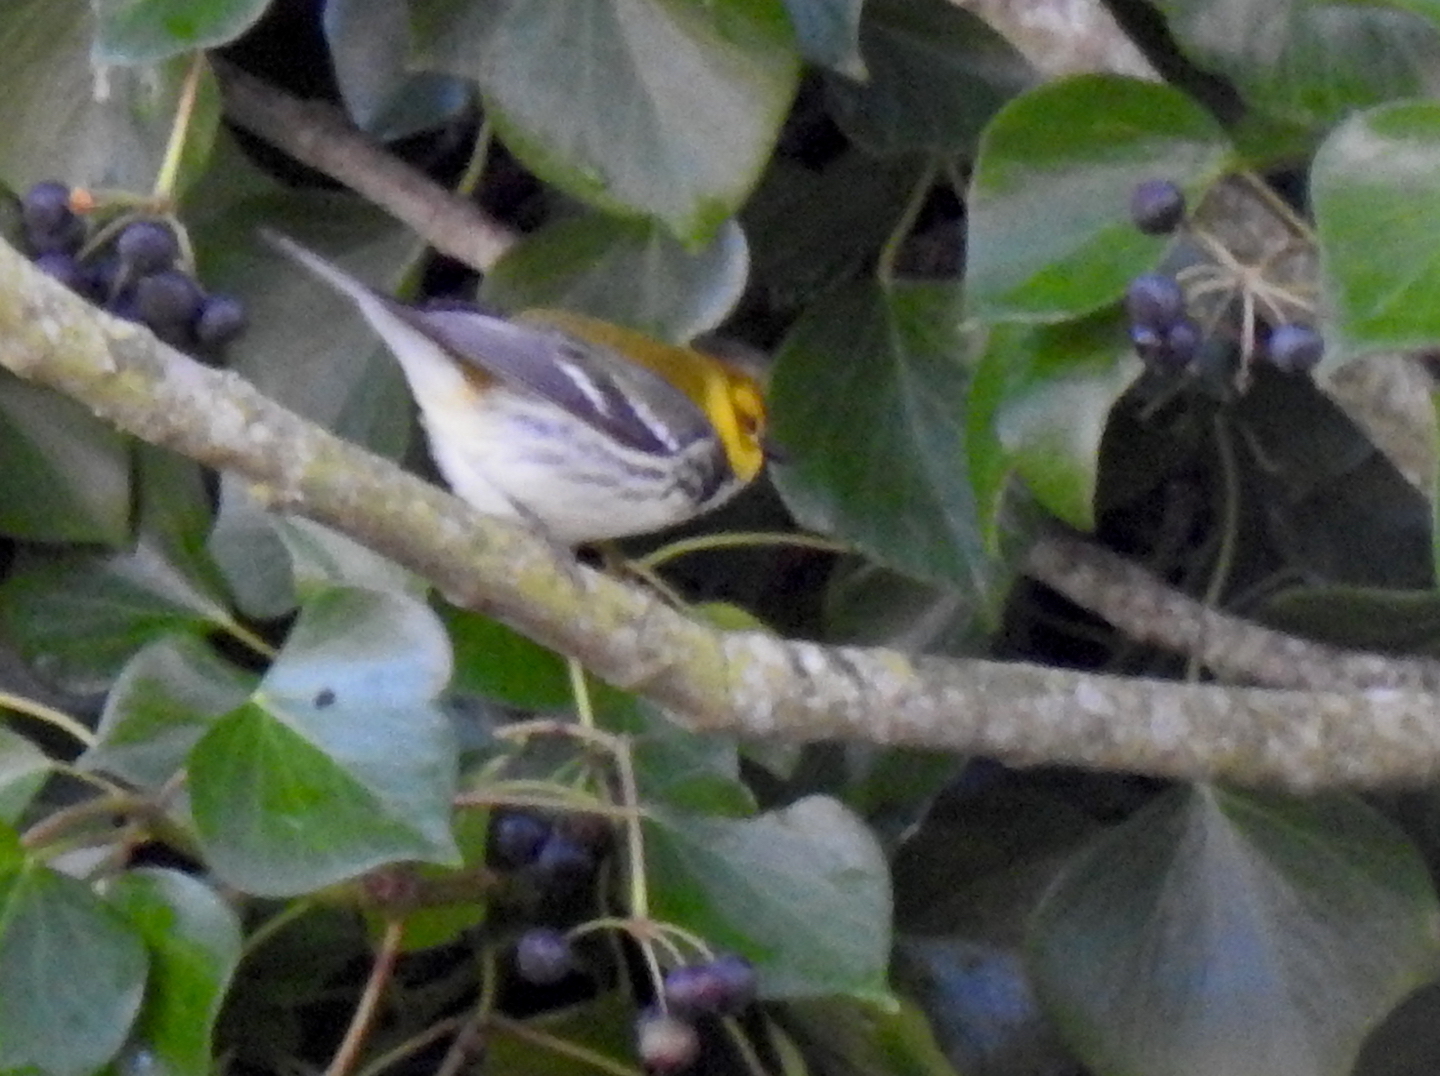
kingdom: Animalia
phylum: Chordata
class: Aves
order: Passeriformes
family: Parulidae
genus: Setophaga
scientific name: Setophaga virens
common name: Black-throated green warbler
